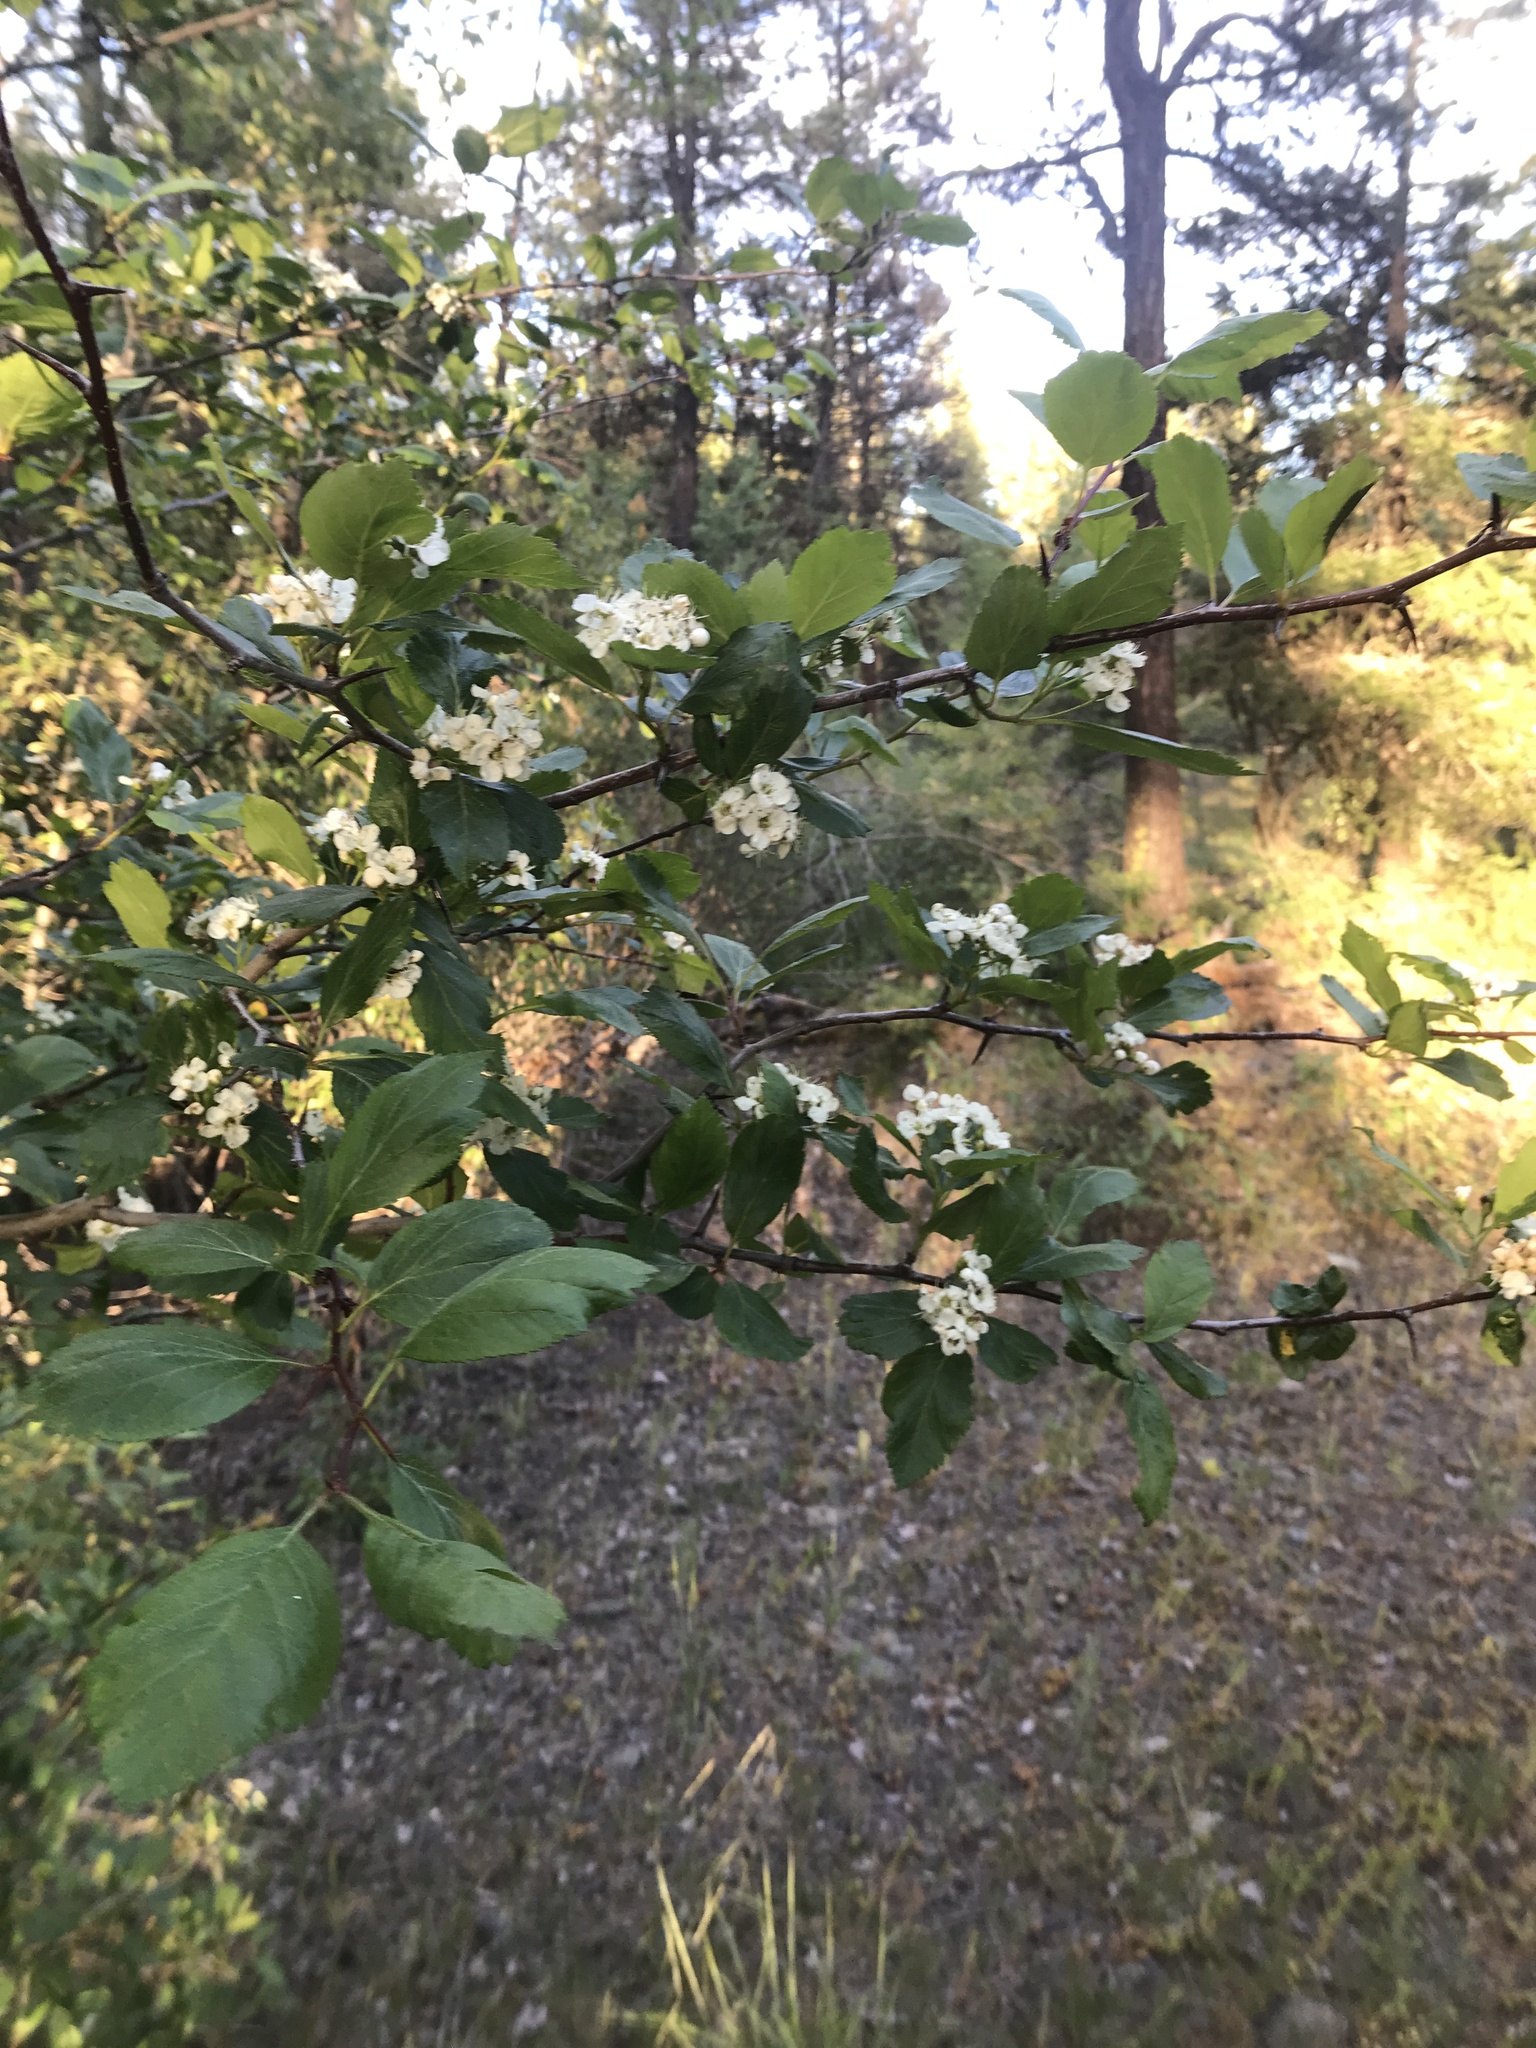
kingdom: Plantae
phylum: Tracheophyta
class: Magnoliopsida
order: Rosales
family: Rosaceae
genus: Crataegus
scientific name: Crataegus douglasii
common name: Black hawthorn
